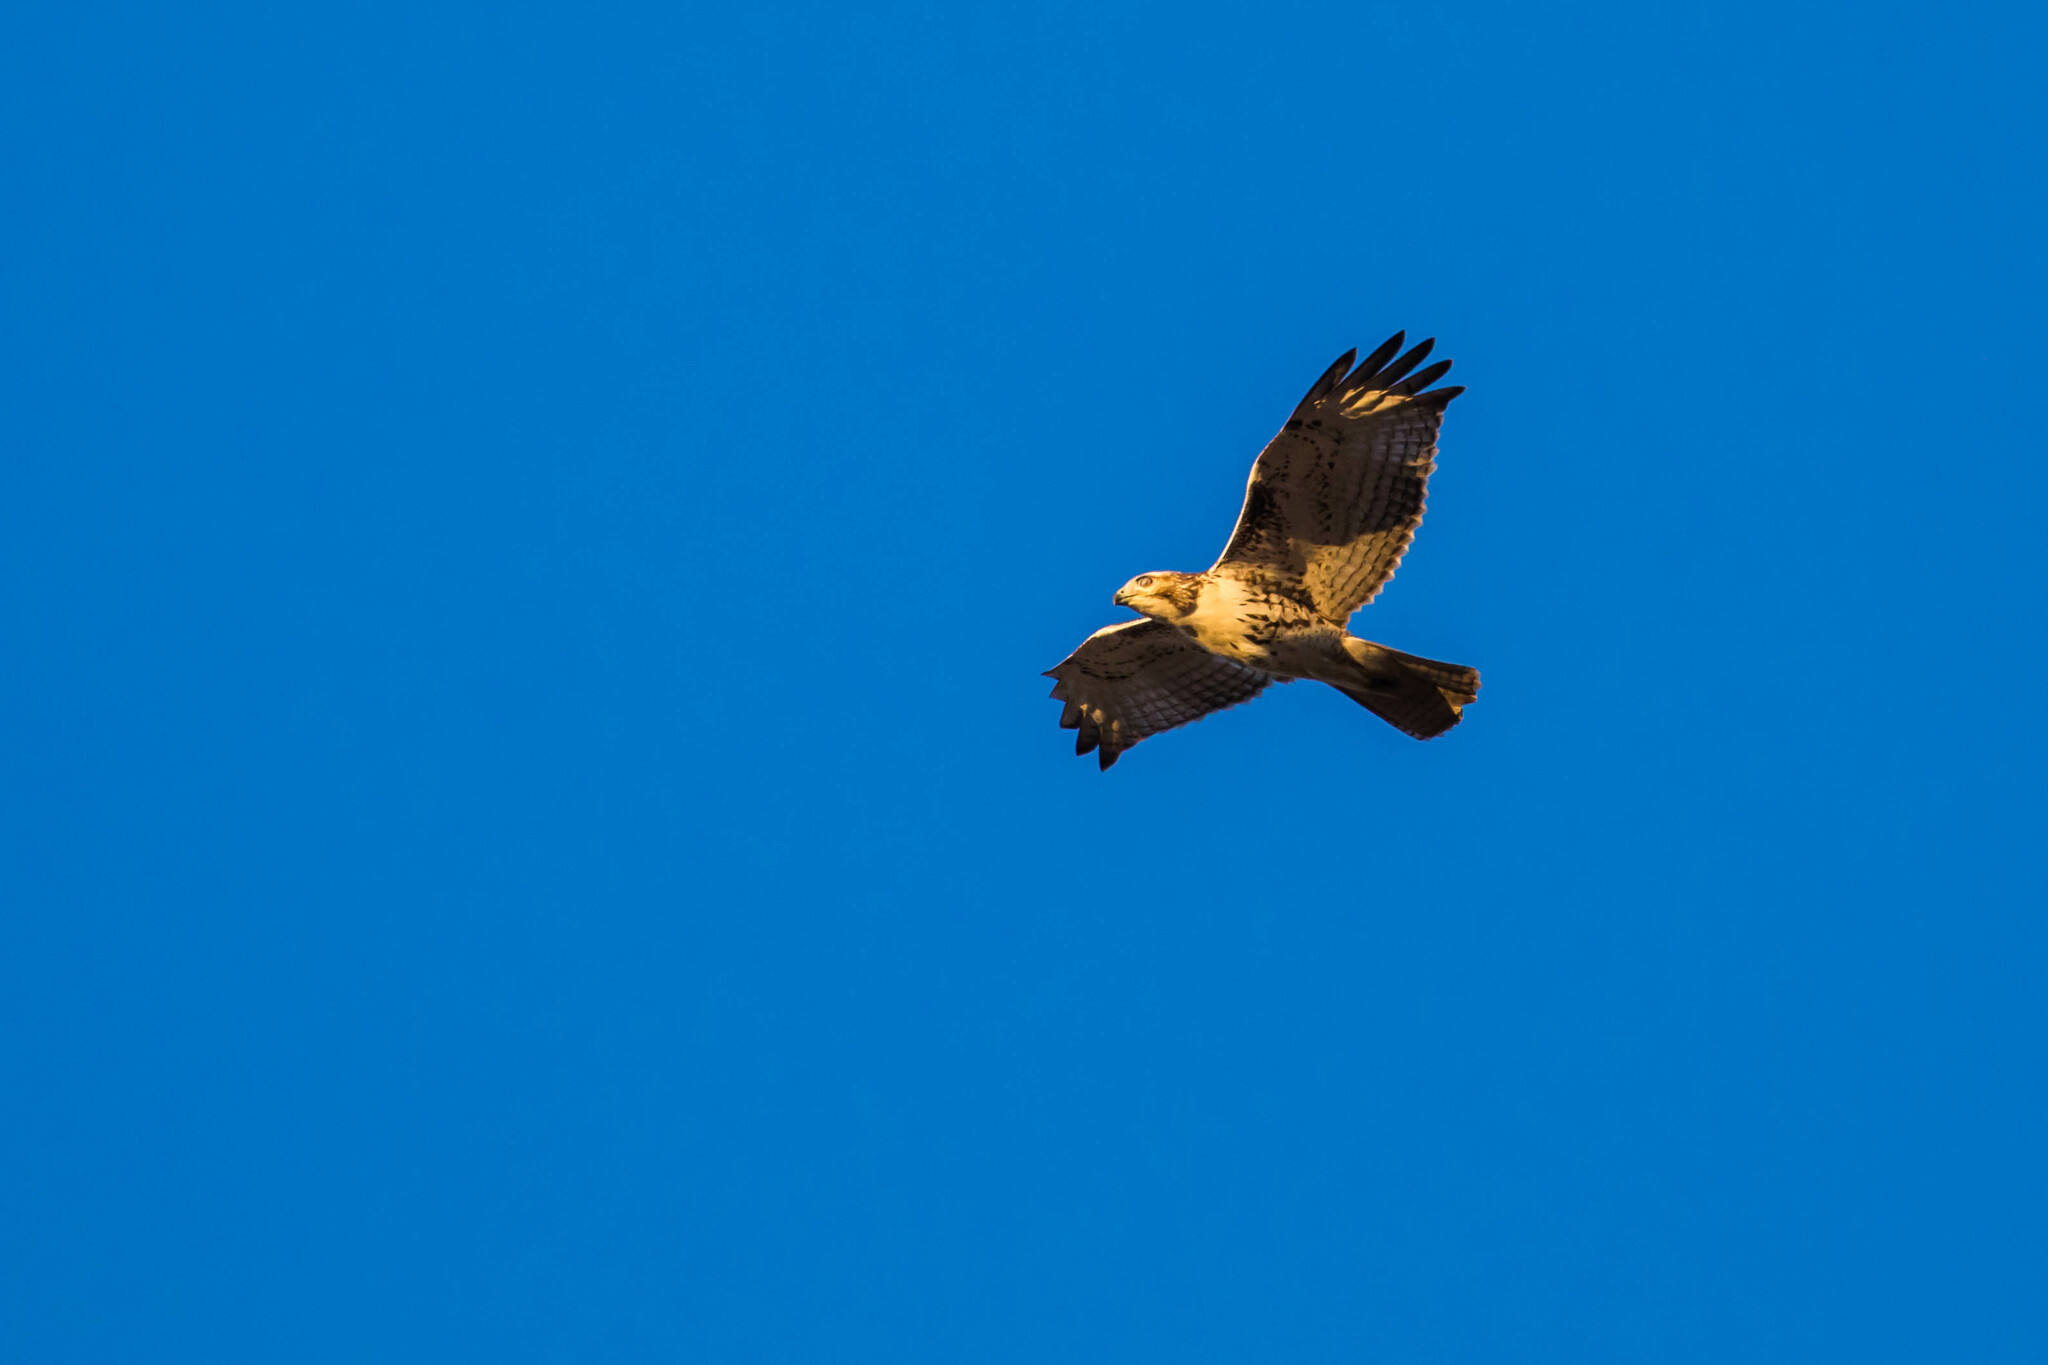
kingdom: Animalia
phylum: Chordata
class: Aves
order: Accipitriformes
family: Accipitridae
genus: Buteo
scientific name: Buteo jamaicensis
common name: Red-tailed hawk
